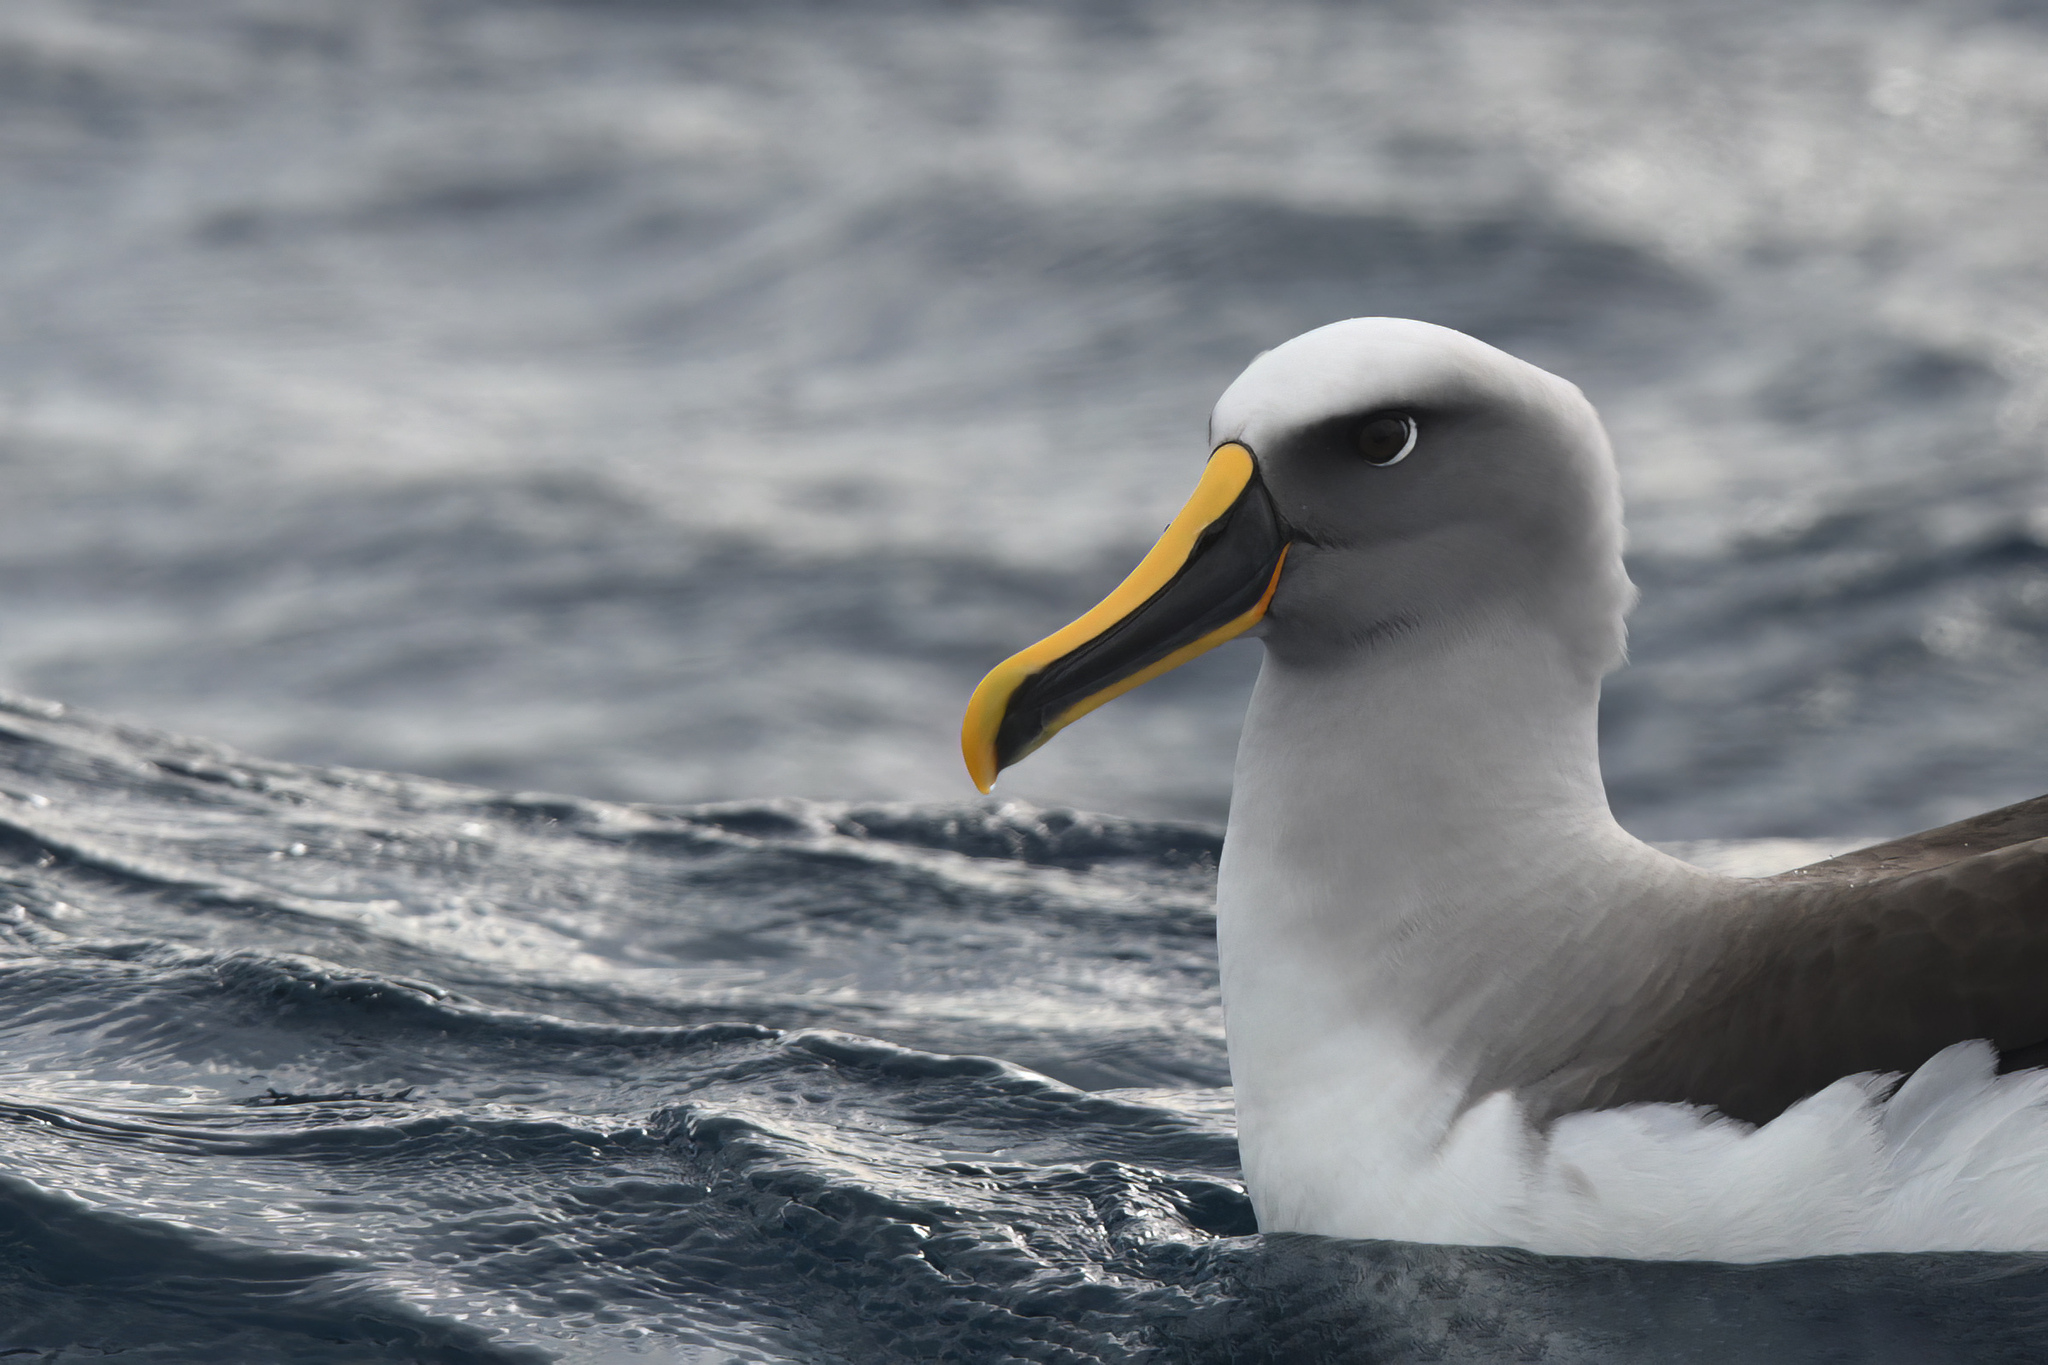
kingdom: Animalia
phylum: Chordata
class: Aves
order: Procellariiformes
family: Diomedeidae
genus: Thalassarche
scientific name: Thalassarche bulleri
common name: Buller's albatross
